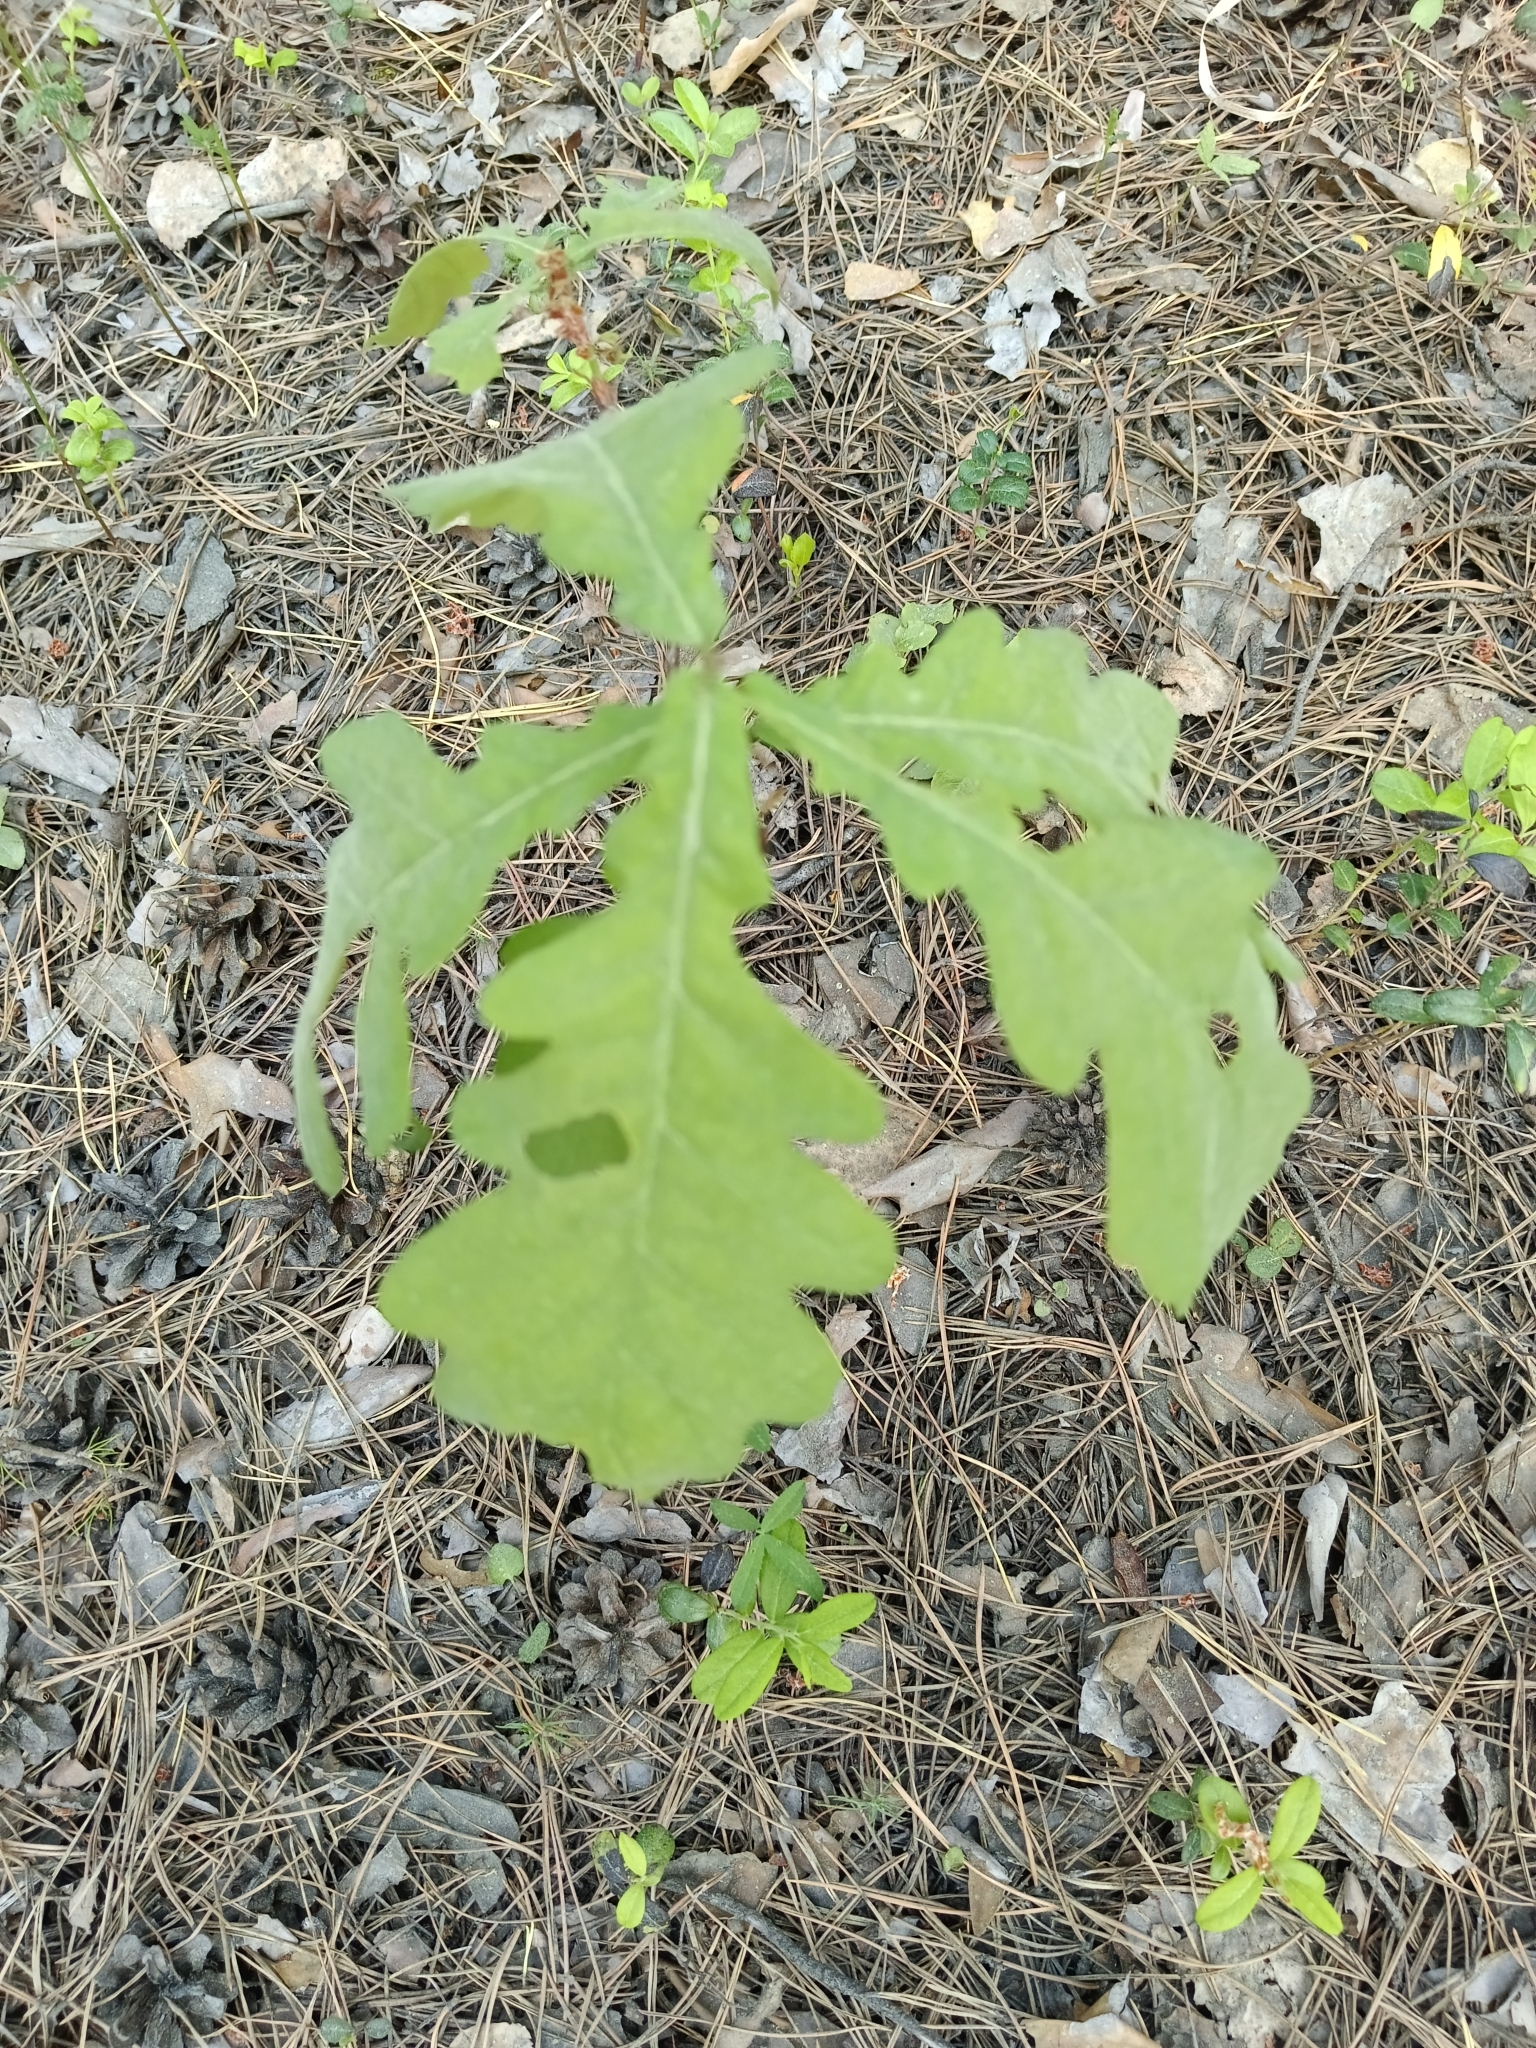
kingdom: Plantae
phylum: Tracheophyta
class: Magnoliopsida
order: Fagales
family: Fagaceae
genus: Quercus
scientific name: Quercus robur
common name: Pedunculate oak
